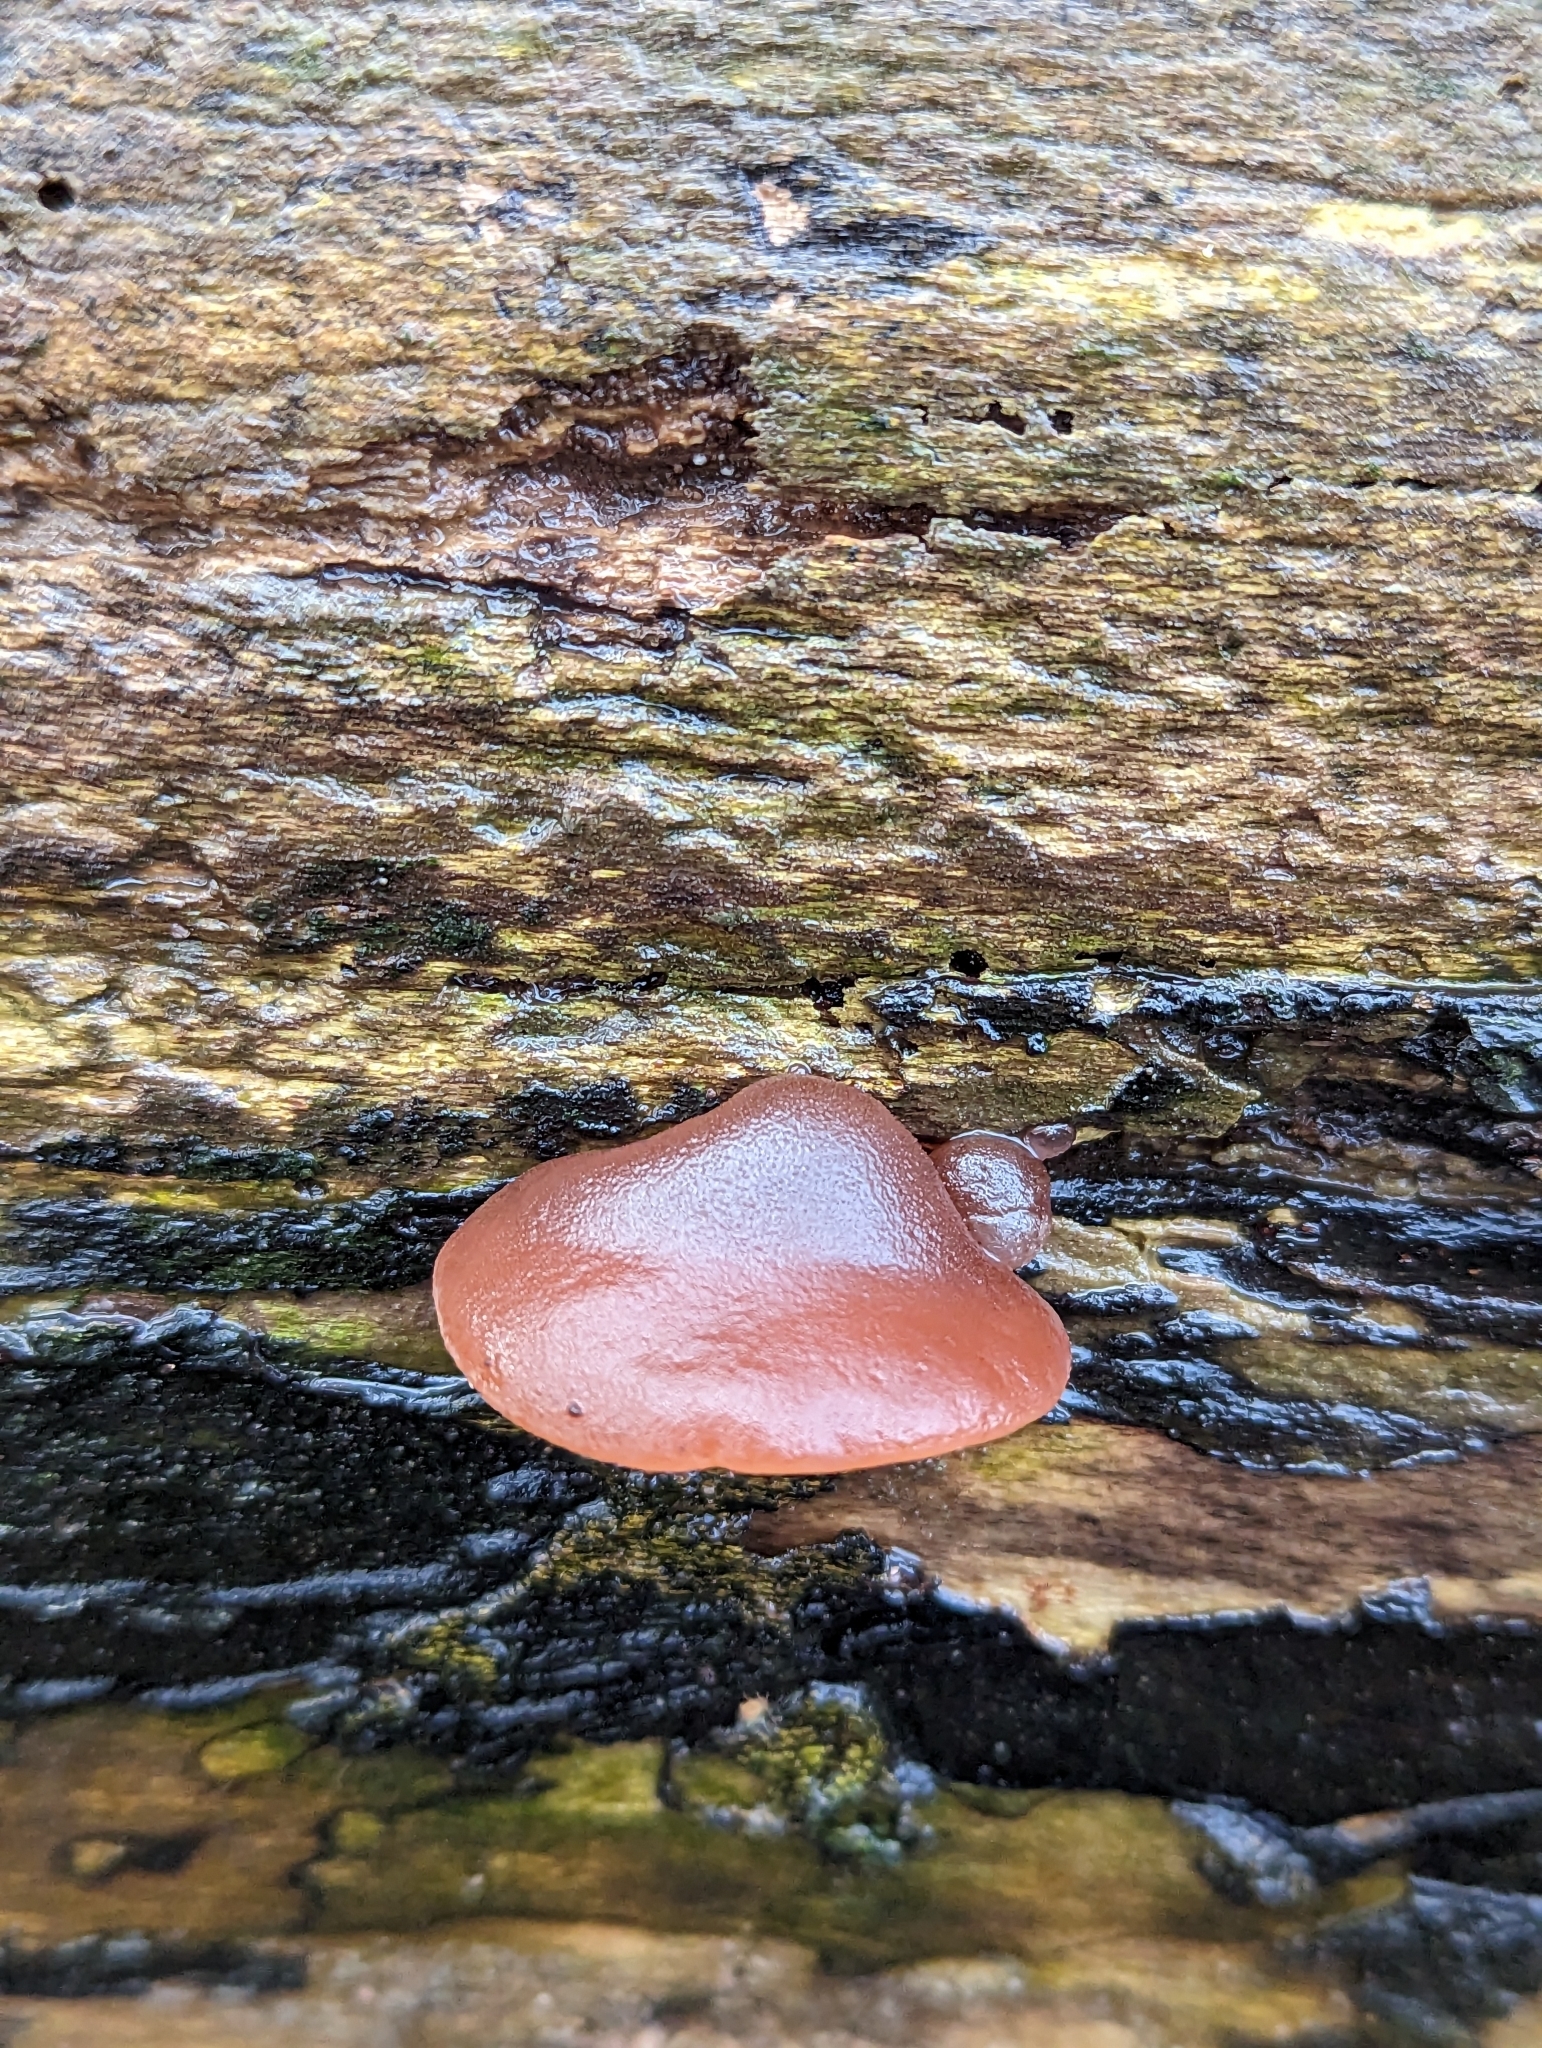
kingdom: Fungi
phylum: Basidiomycota
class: Agaricomycetes
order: Auriculariales
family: Auriculariaceae
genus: Auricularia
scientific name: Auricularia auricula-judae
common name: Jelly ear
